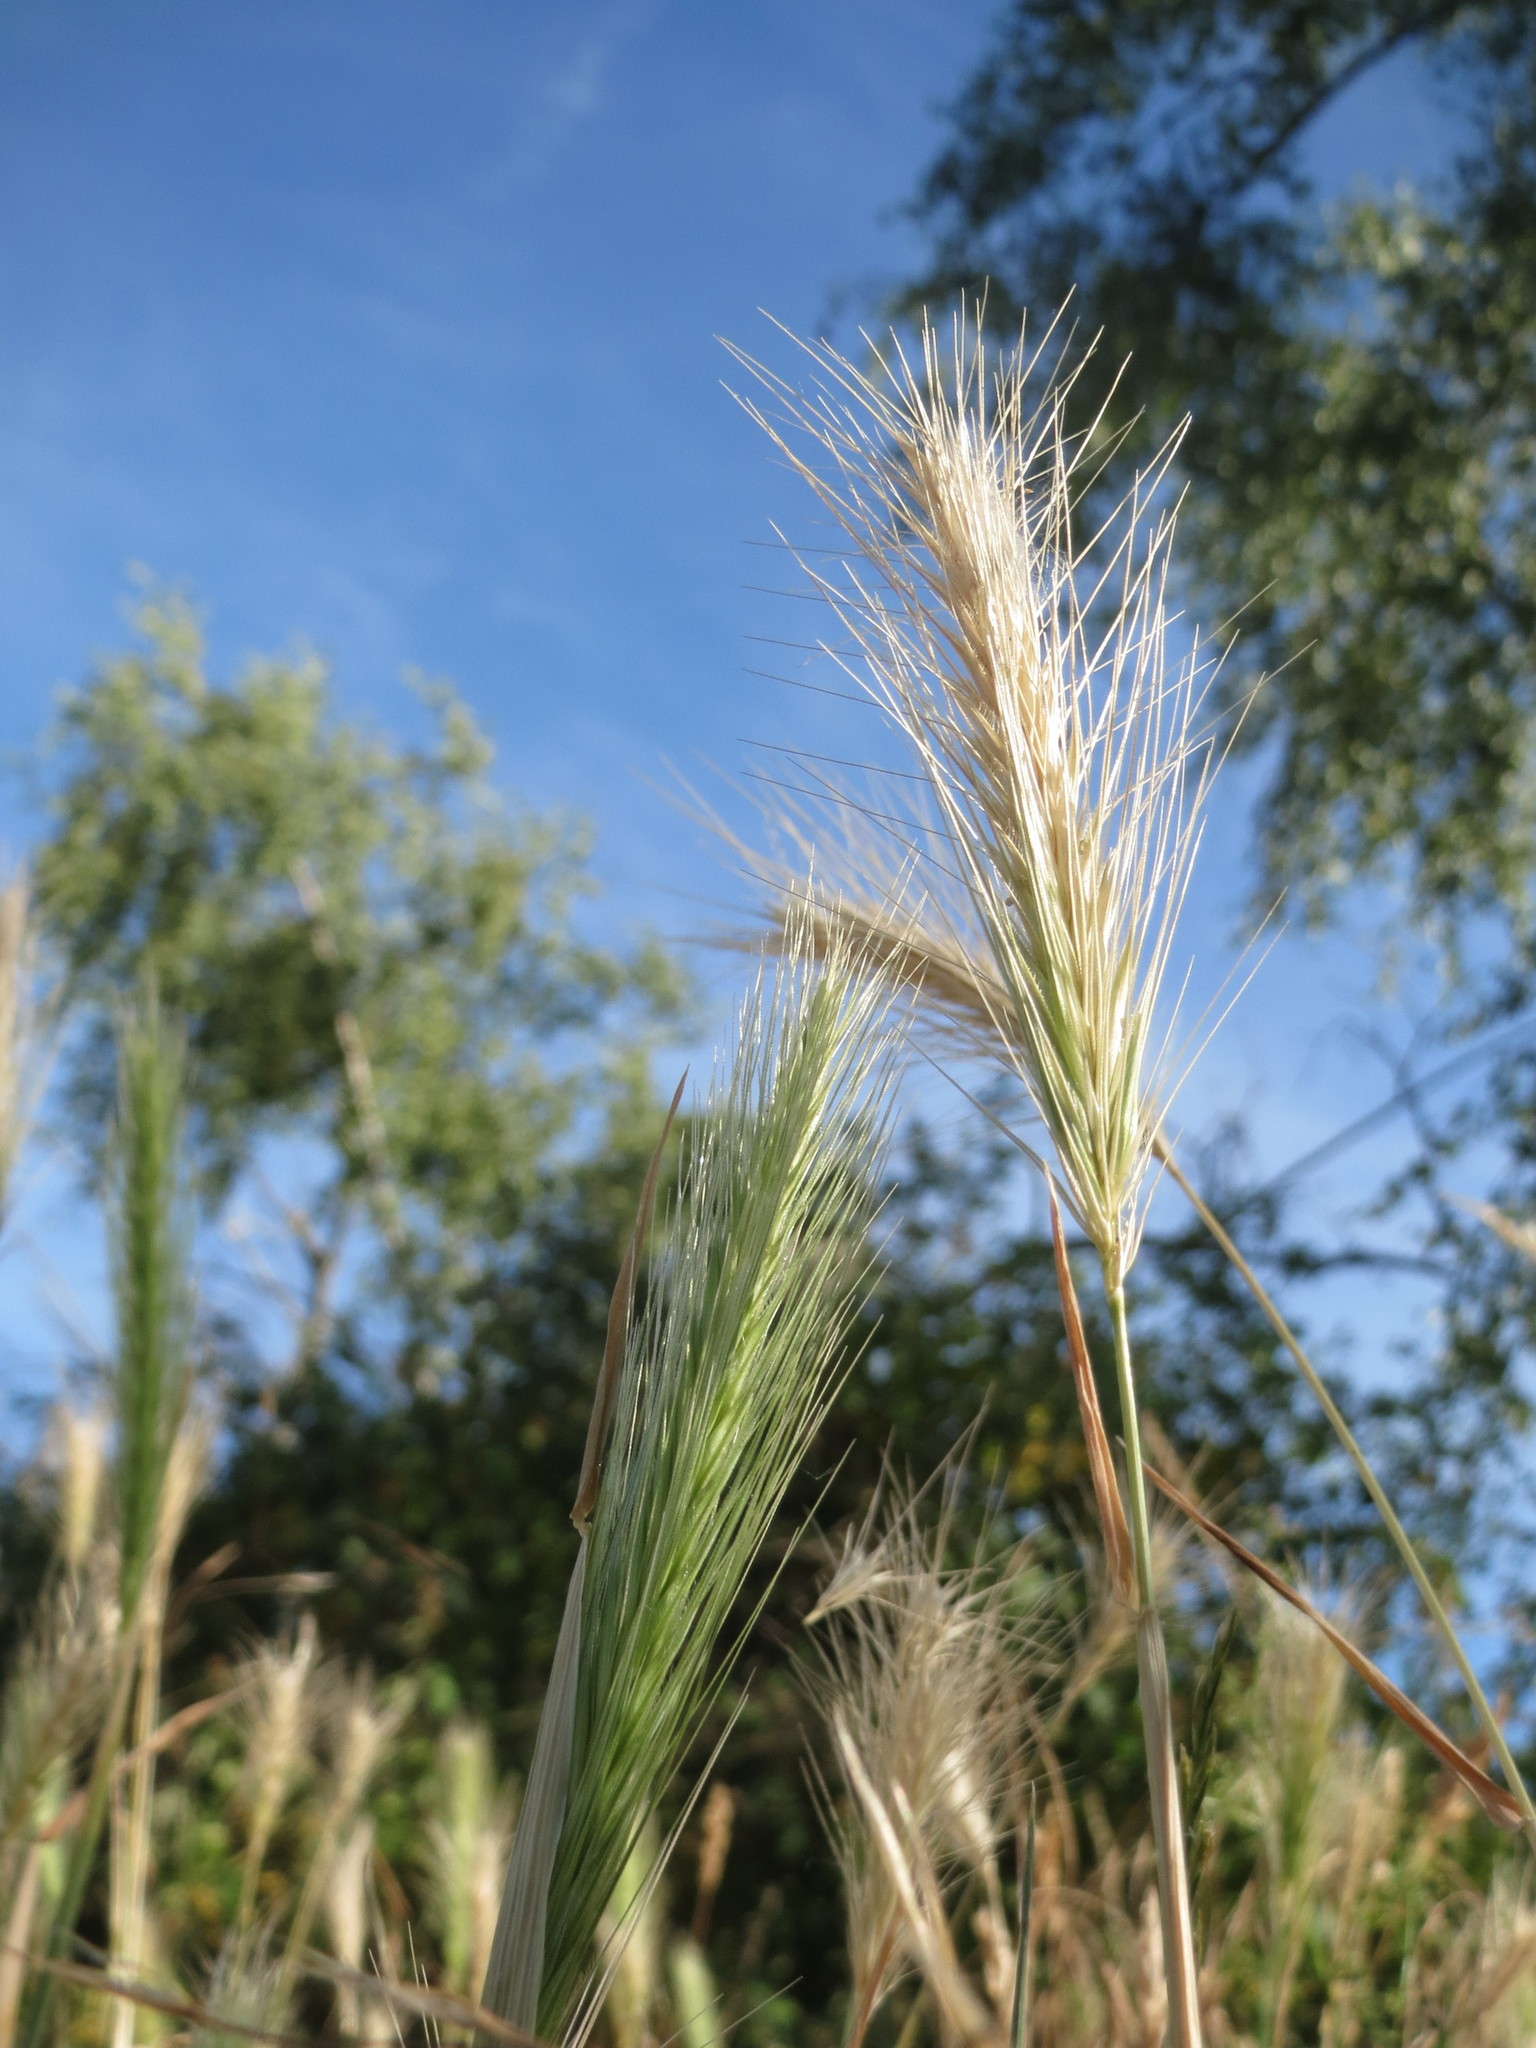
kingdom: Plantae
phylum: Tracheophyta
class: Liliopsida
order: Poales
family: Poaceae
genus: Hordeum
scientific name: Hordeum murinum
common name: Wall barley
